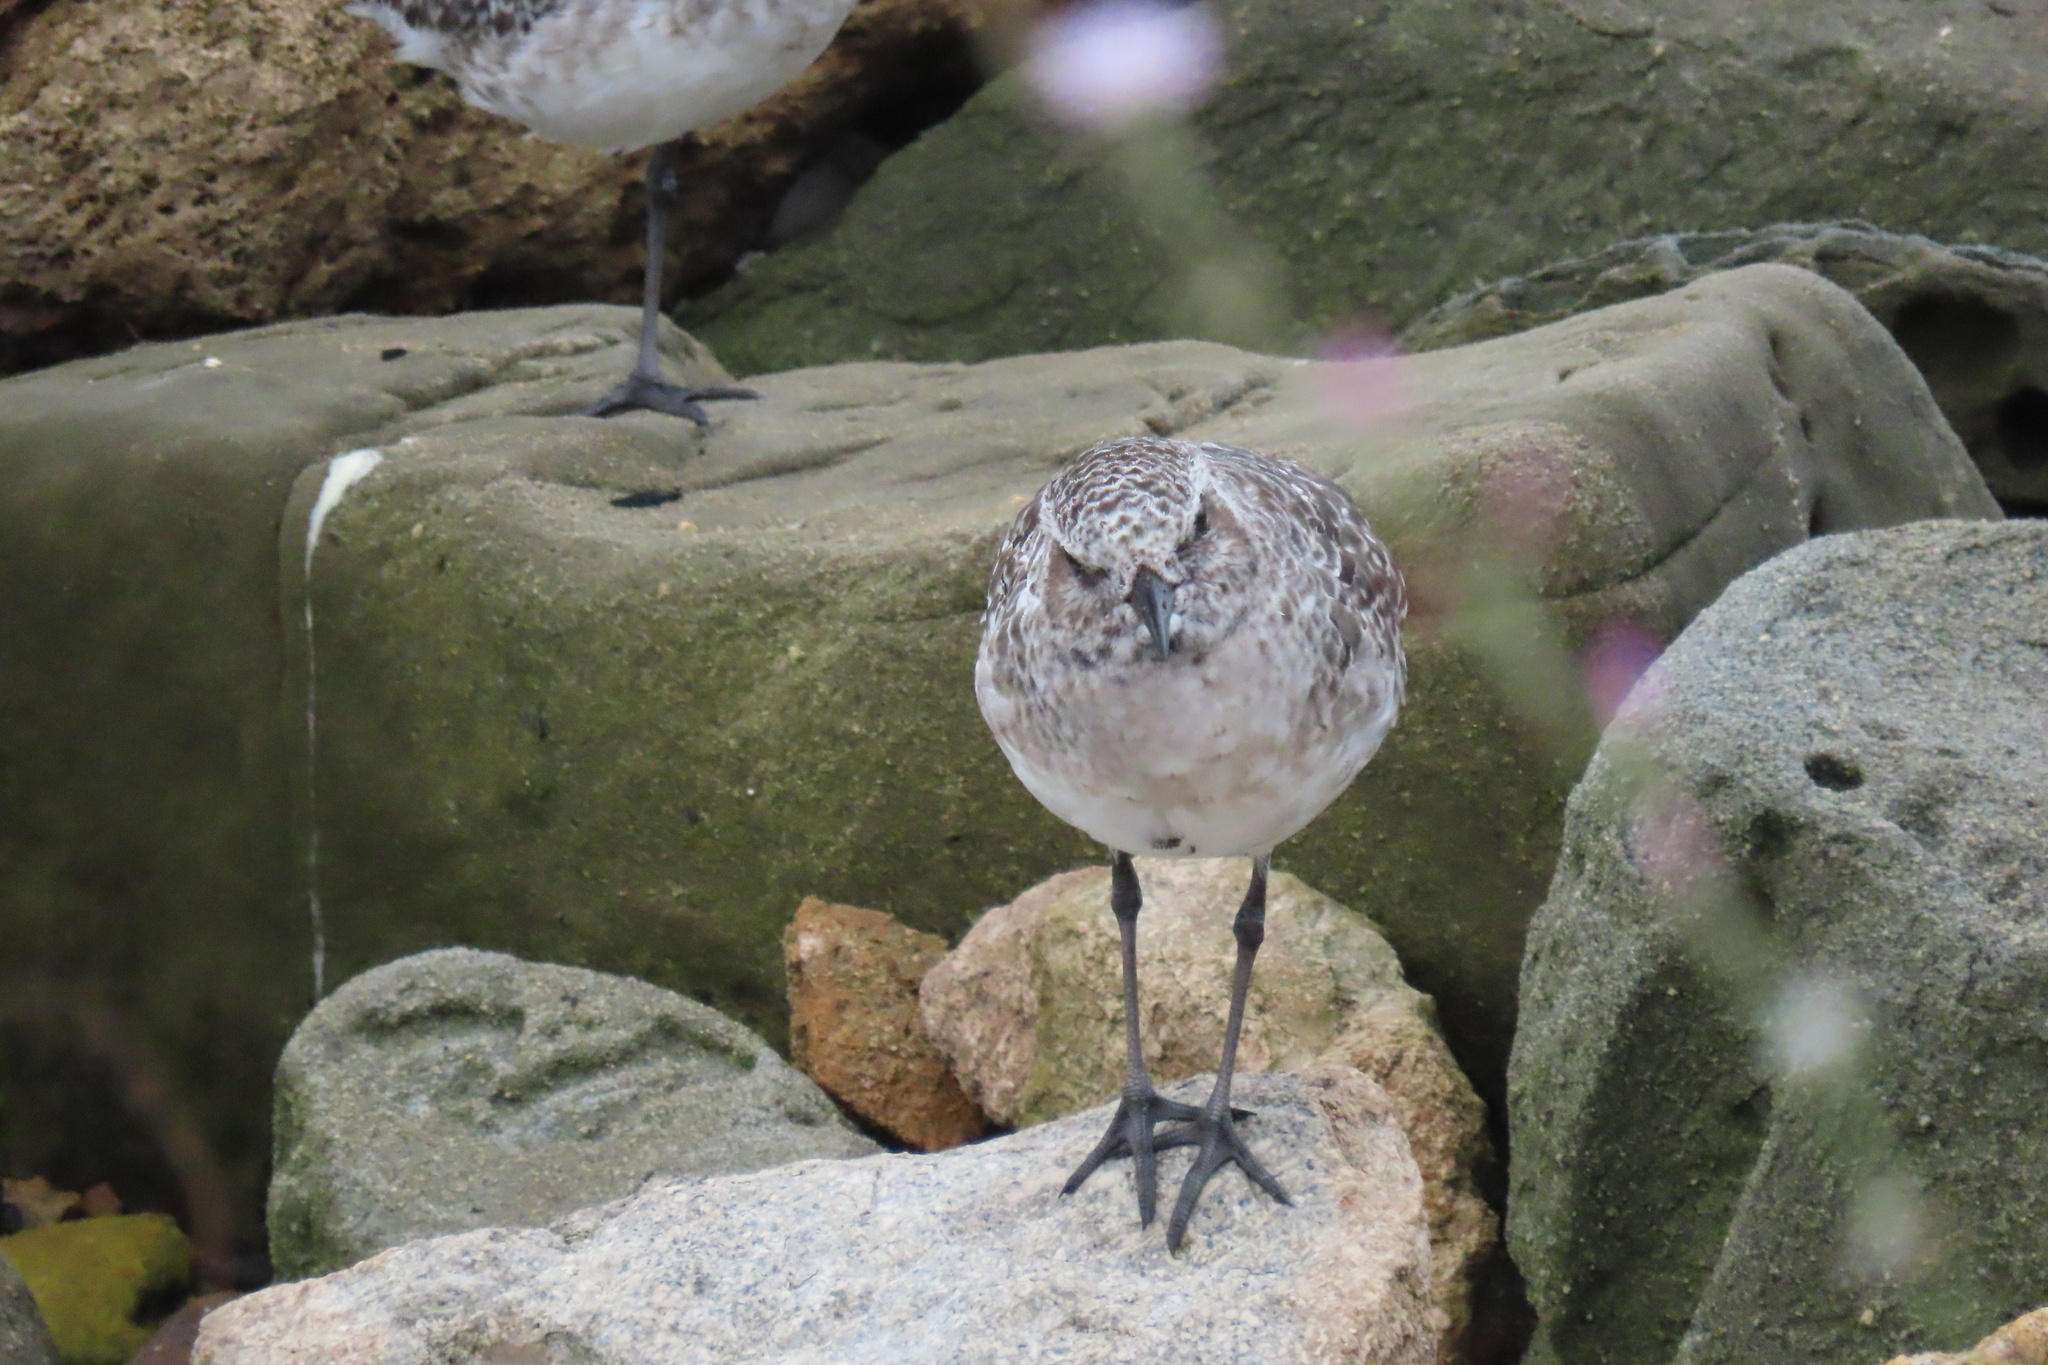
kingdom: Animalia
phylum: Chordata
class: Aves
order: Charadriiformes
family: Charadriidae
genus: Pluvialis
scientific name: Pluvialis squatarola
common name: Grey plover
